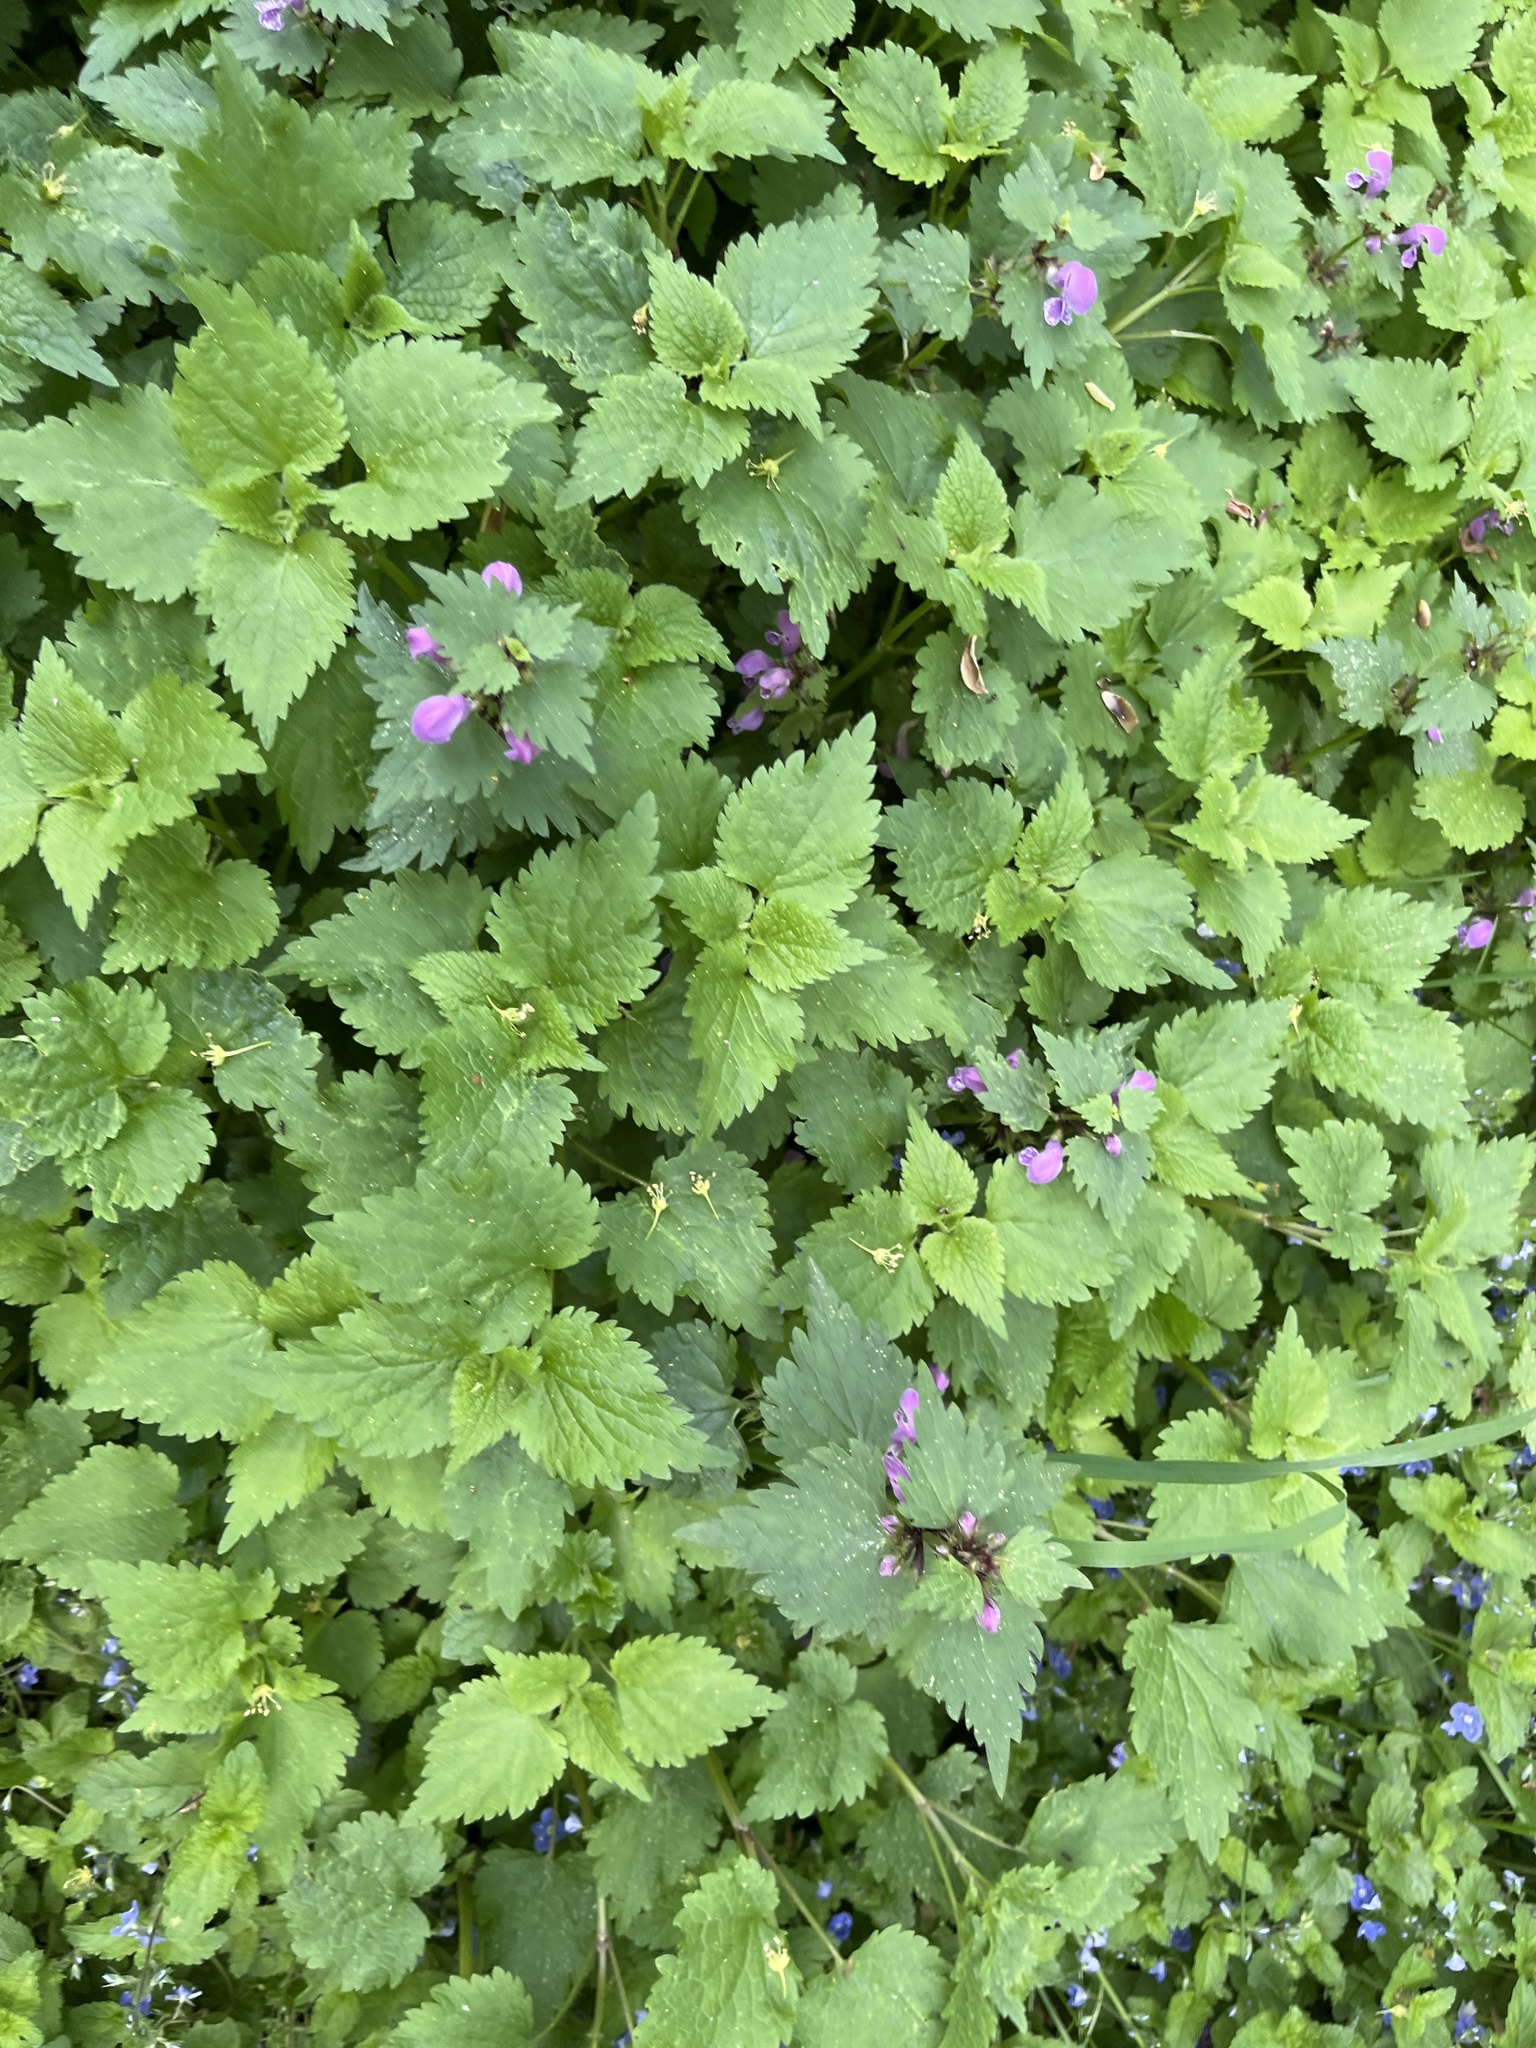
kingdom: Plantae
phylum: Tracheophyta
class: Magnoliopsida
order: Lamiales
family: Lamiaceae
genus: Lamium
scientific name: Lamium maculatum
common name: Spotted dead-nettle
